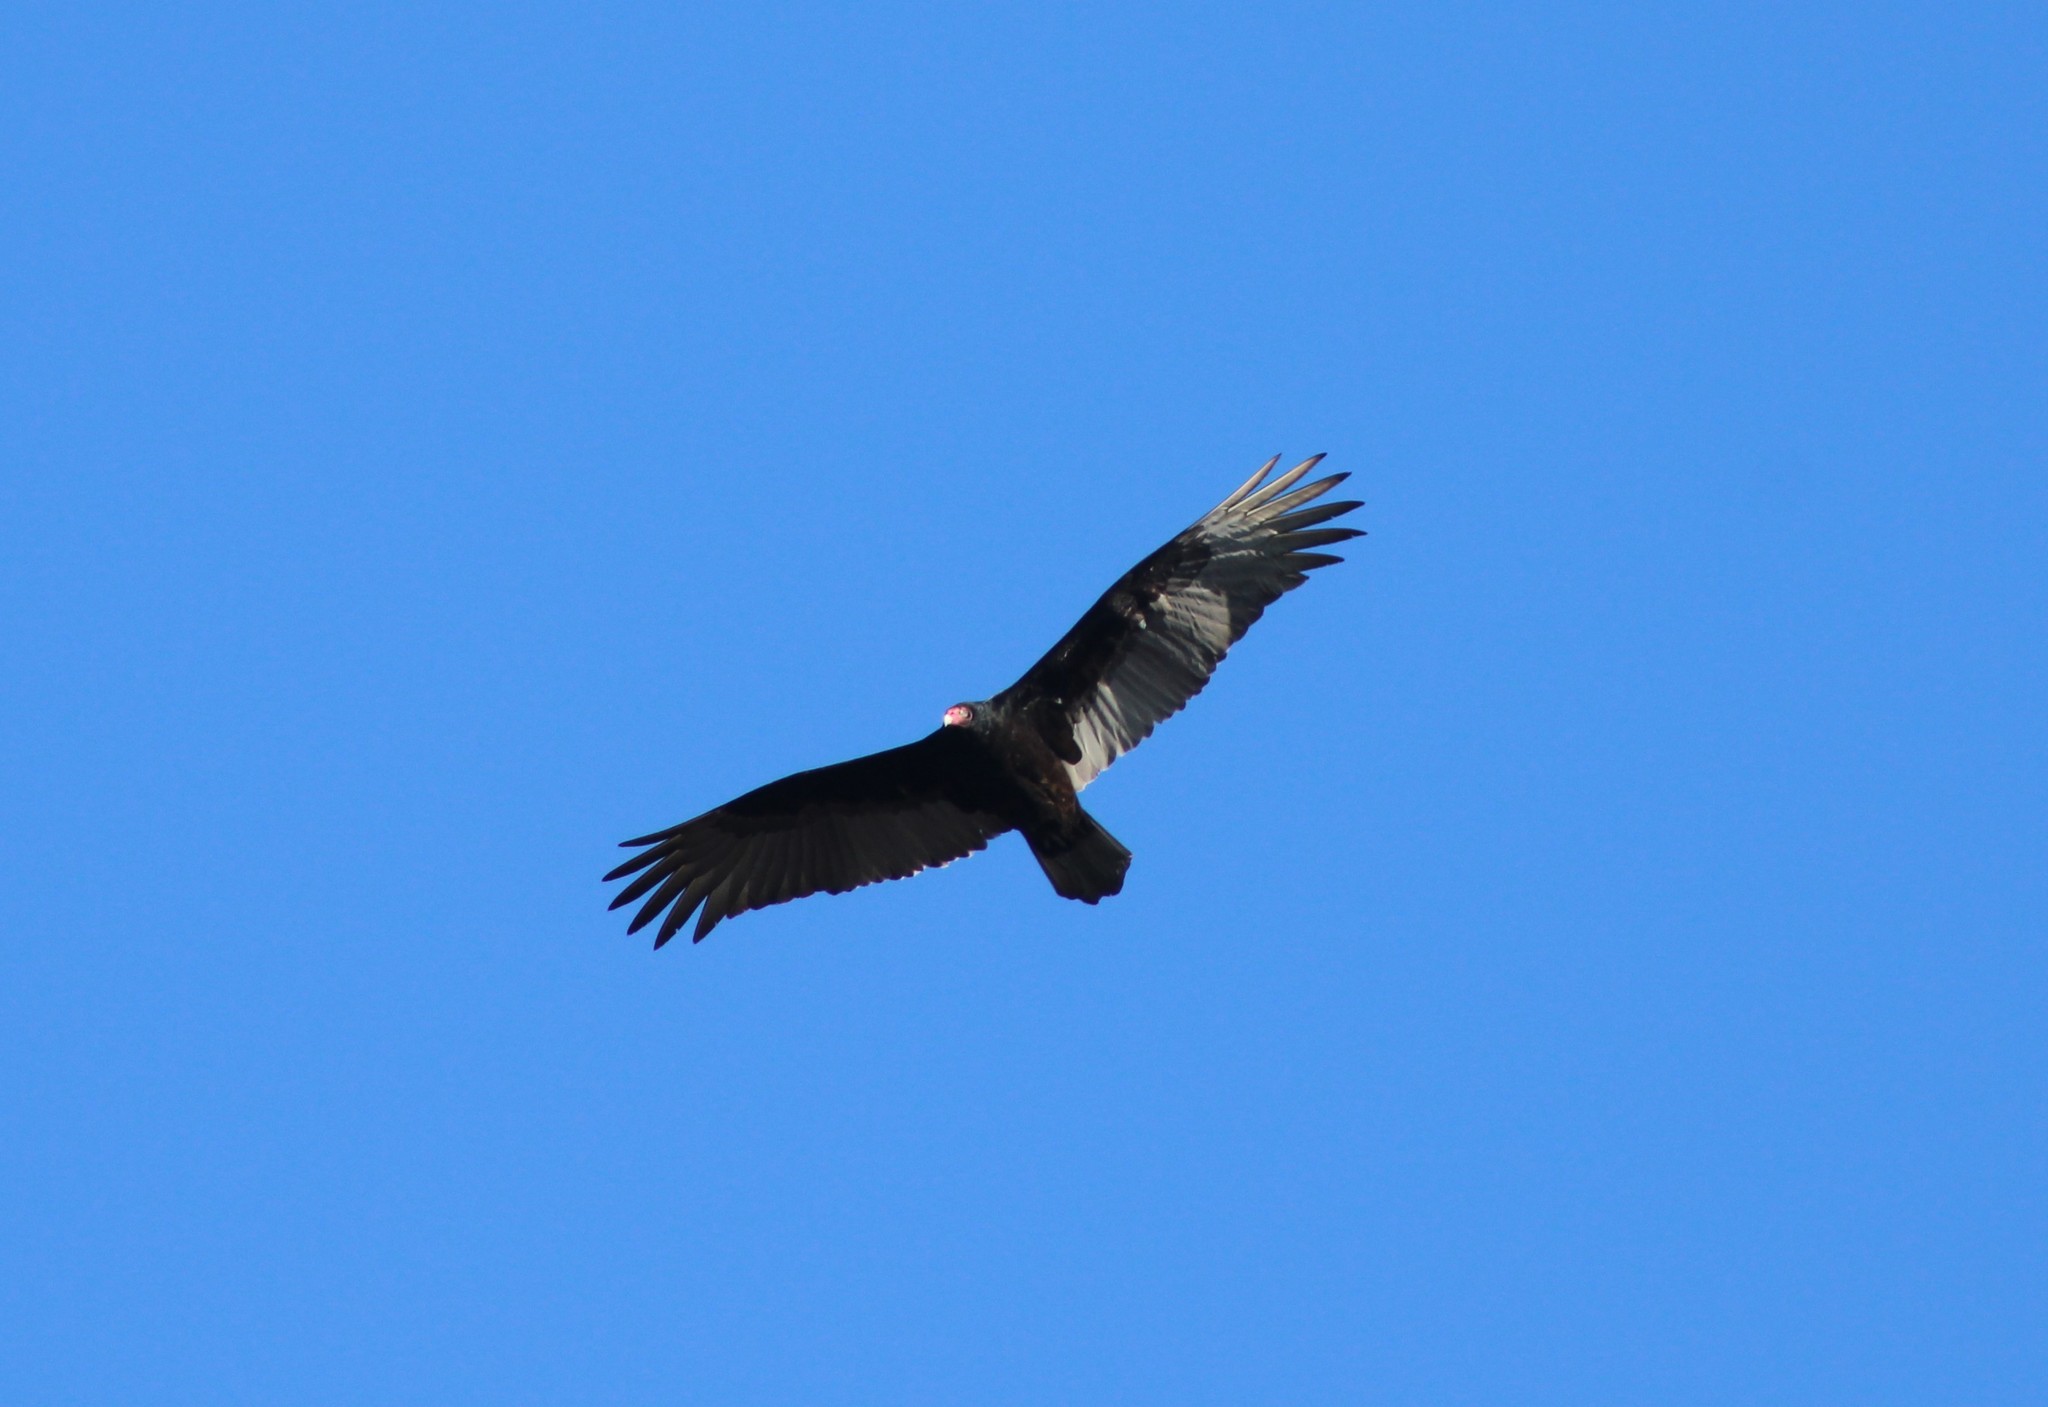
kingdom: Animalia
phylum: Chordata
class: Aves
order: Accipitriformes
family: Cathartidae
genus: Cathartes
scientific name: Cathartes aura
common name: Turkey vulture
